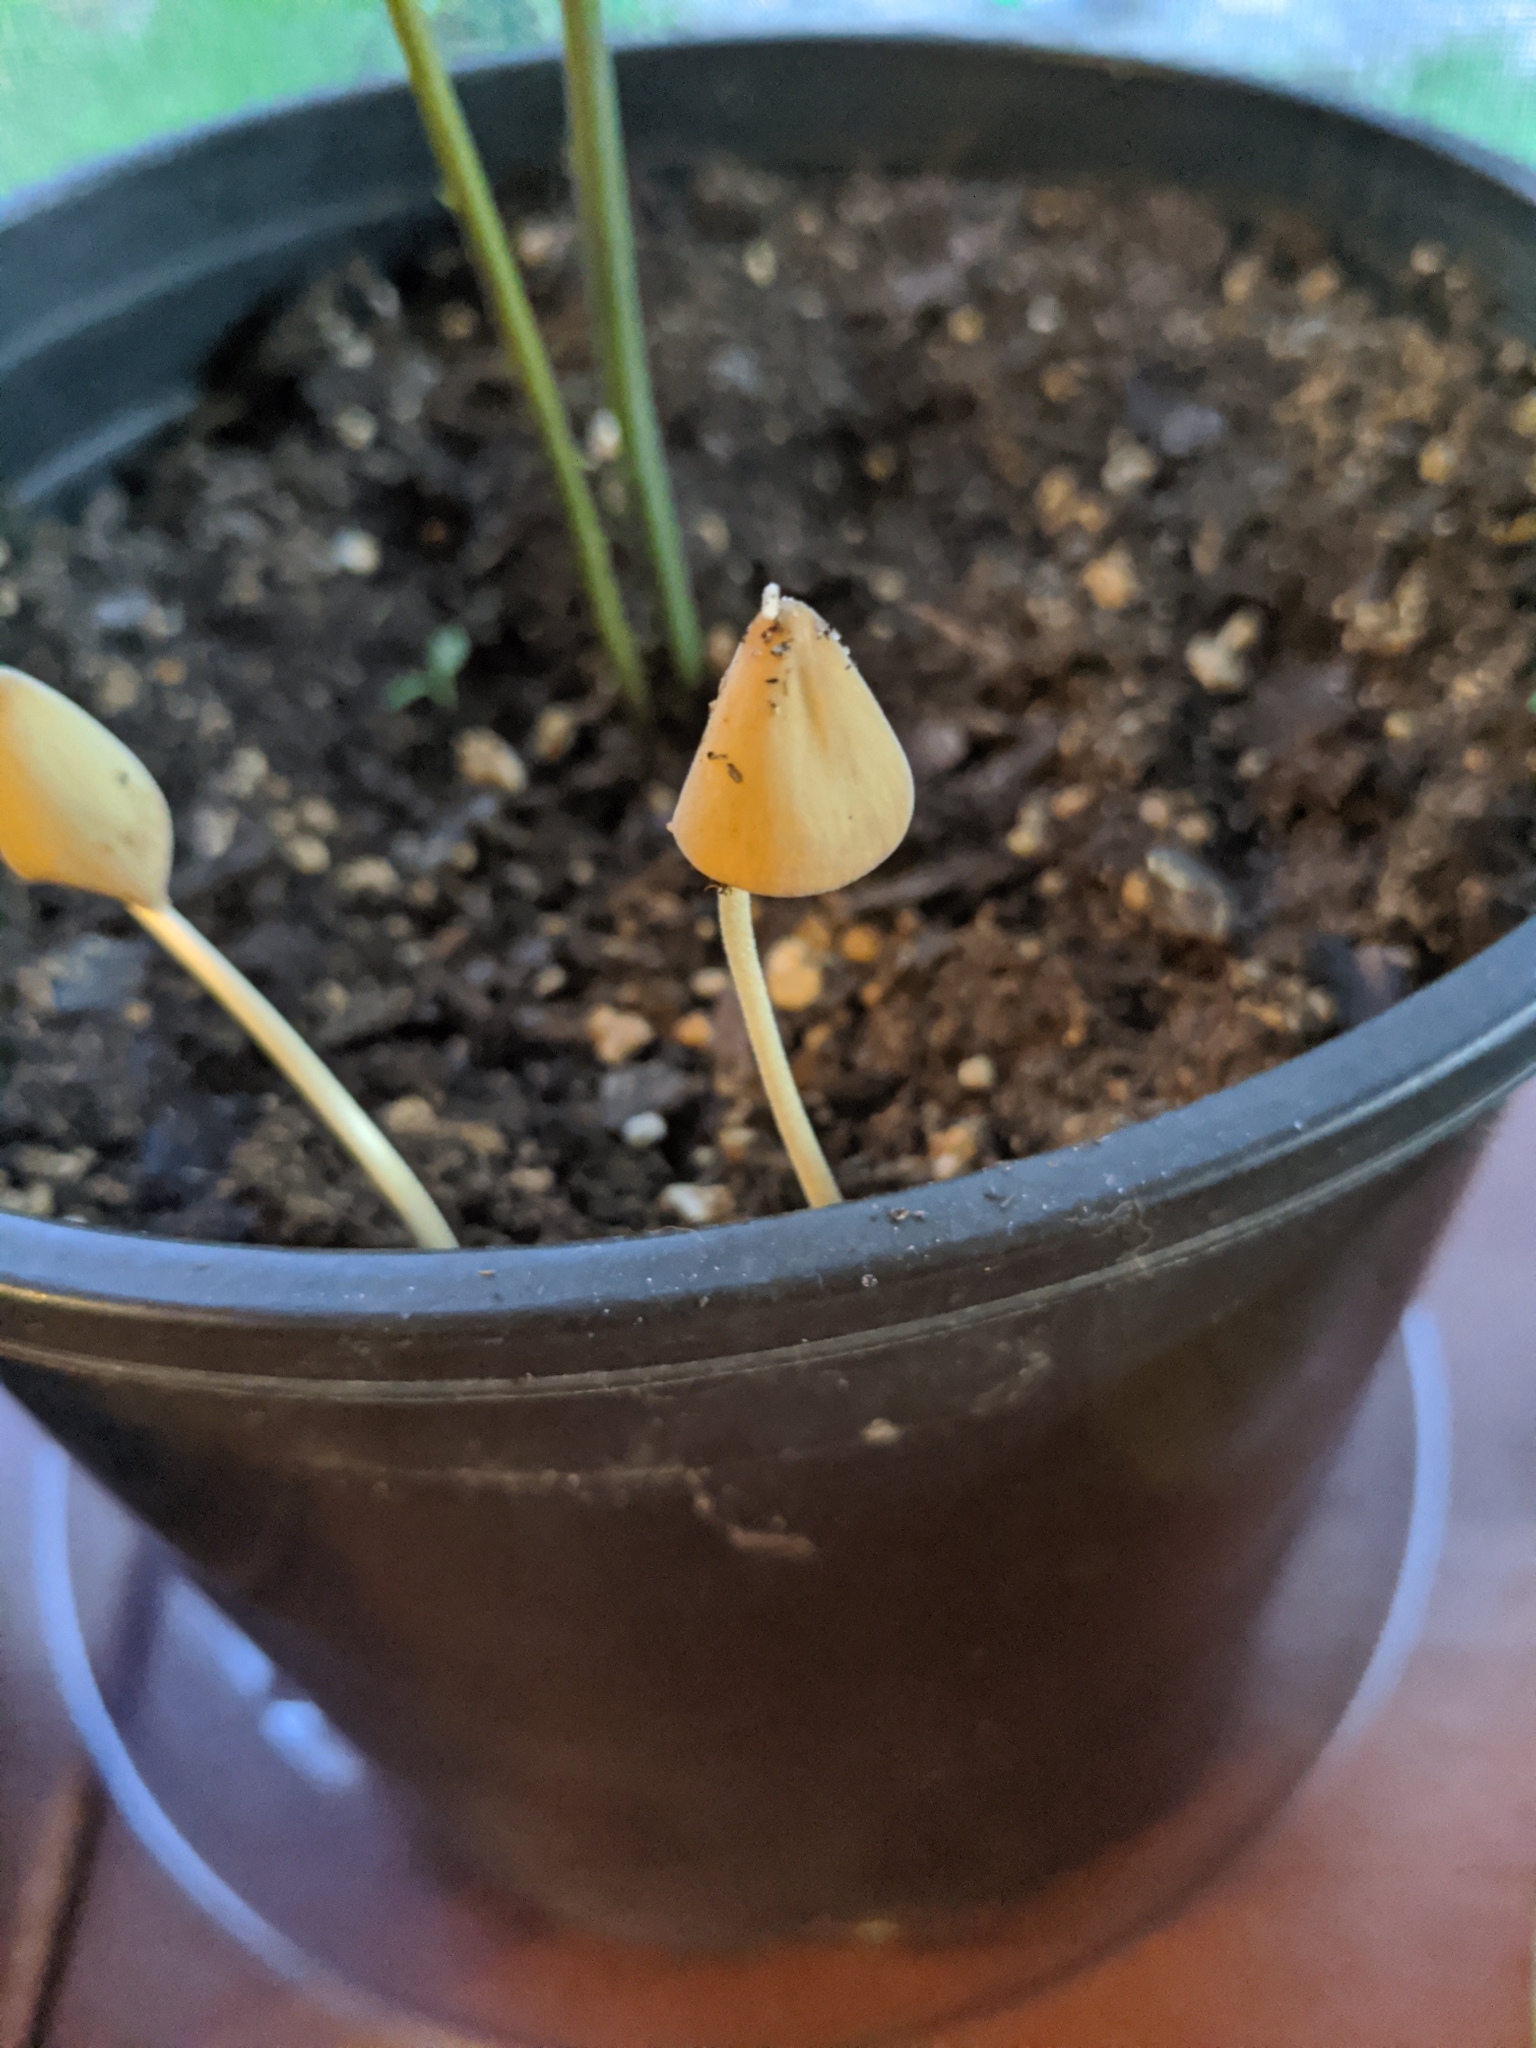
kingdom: Fungi
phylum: Basidiomycota
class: Agaricomycetes
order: Agaricales
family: Bolbitiaceae
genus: Conocybe
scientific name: Conocybe apala
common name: Milky conecap
